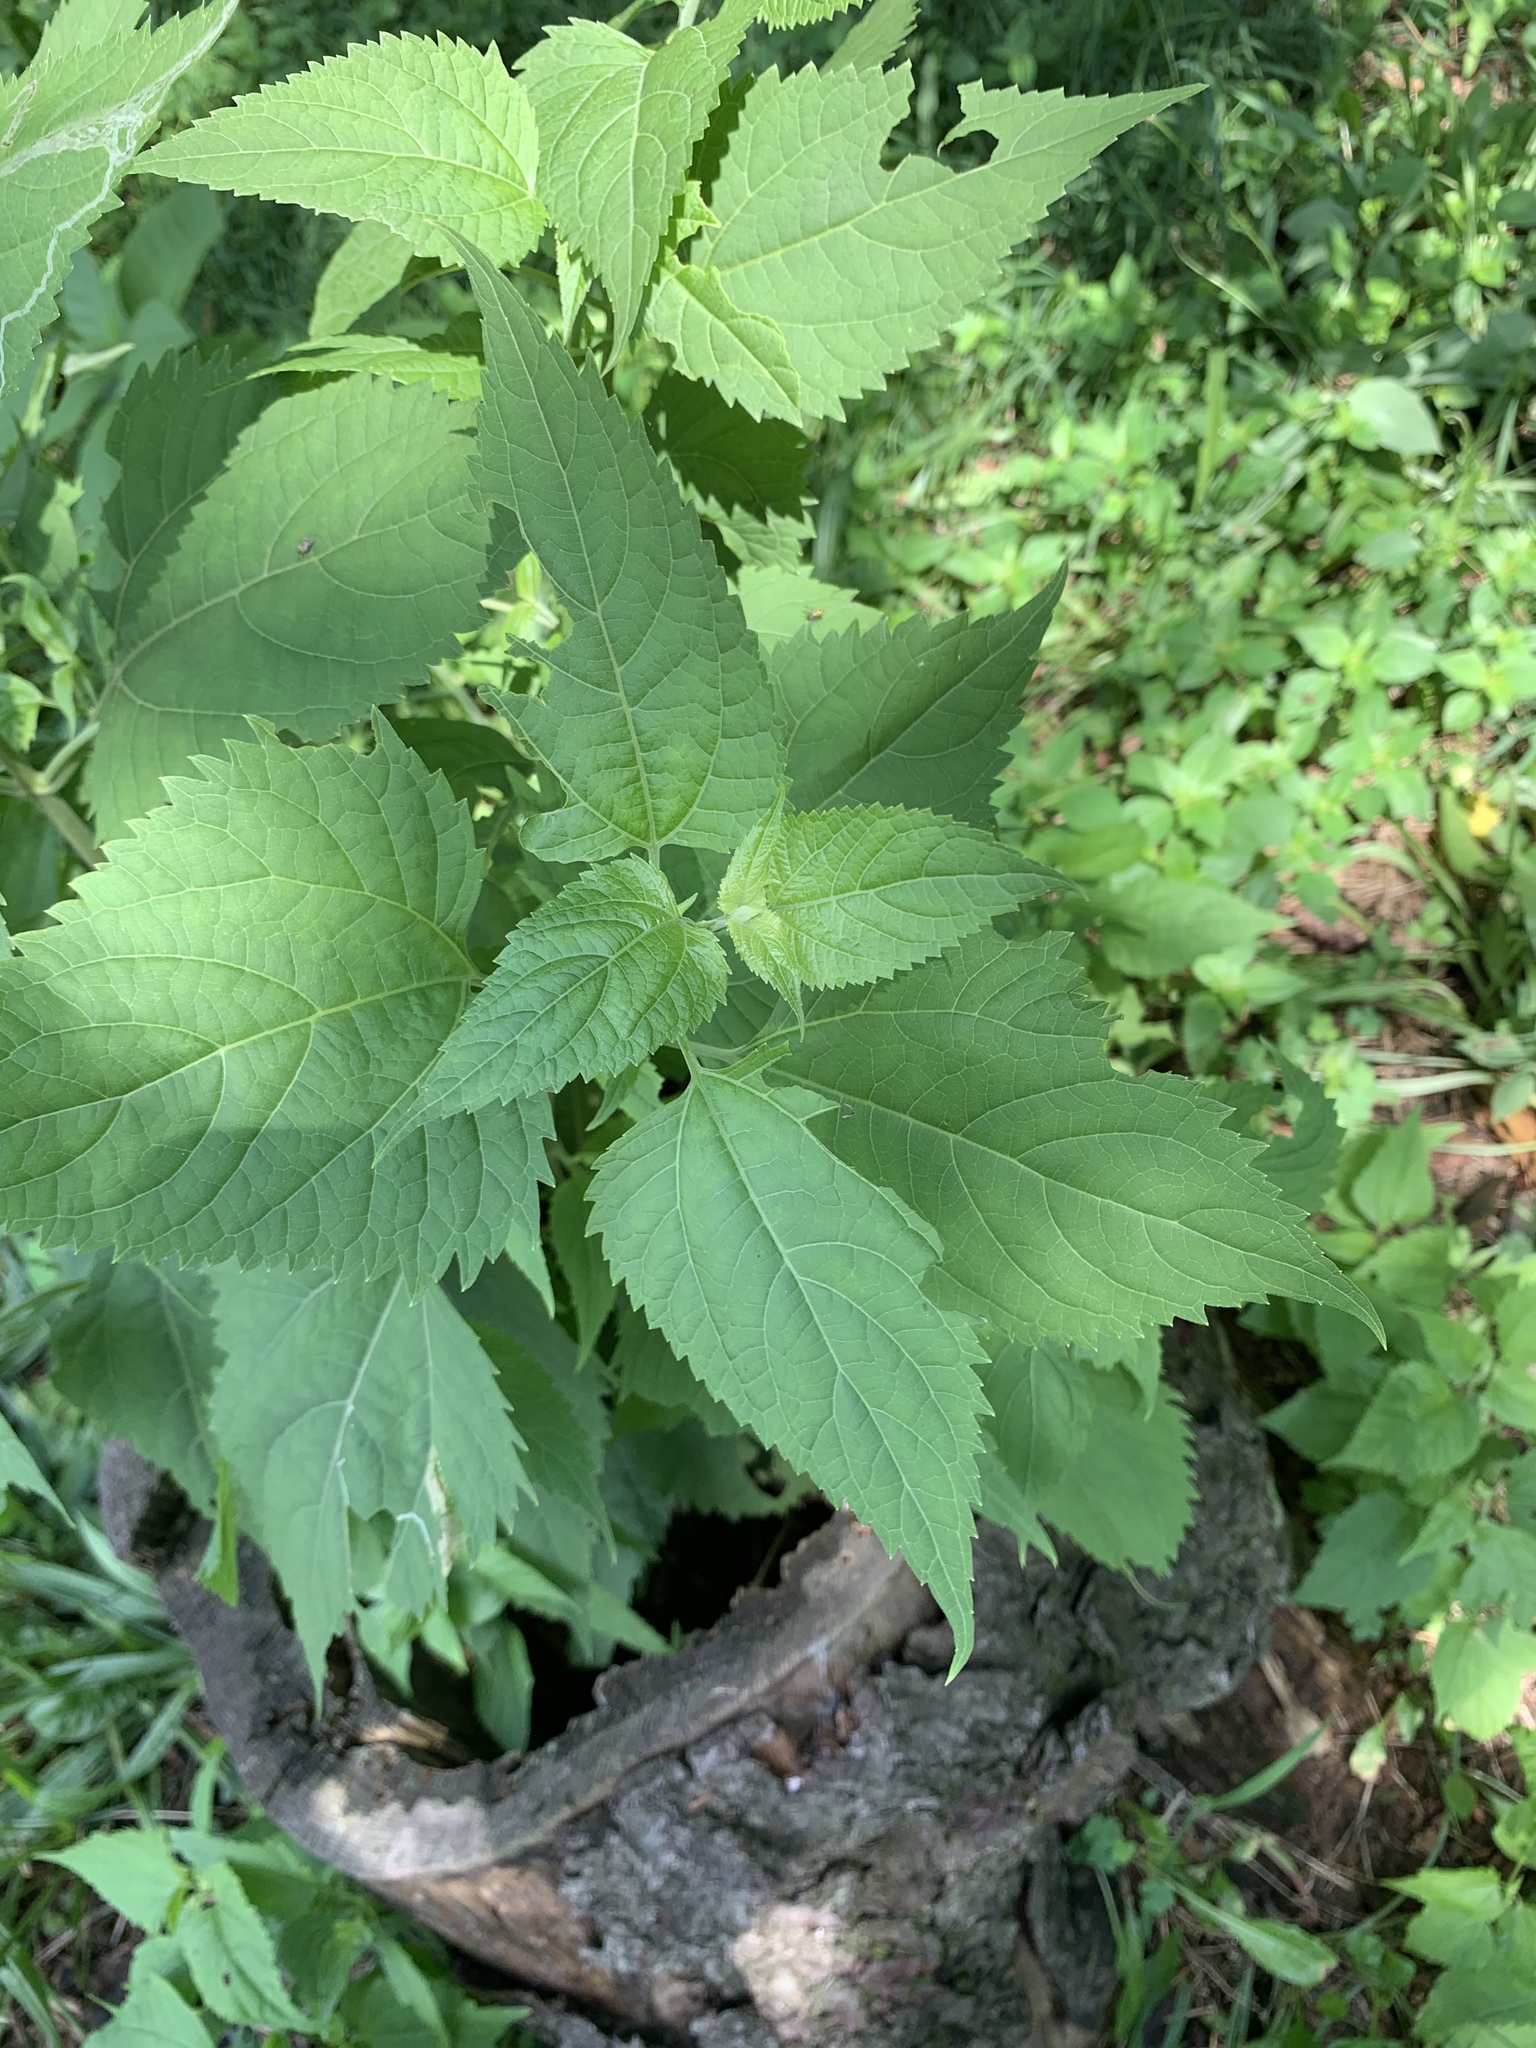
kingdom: Plantae
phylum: Tracheophyta
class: Magnoliopsida
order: Asterales
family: Asteraceae
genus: Ageratina
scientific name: Ageratina altissima
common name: White snakeroot
